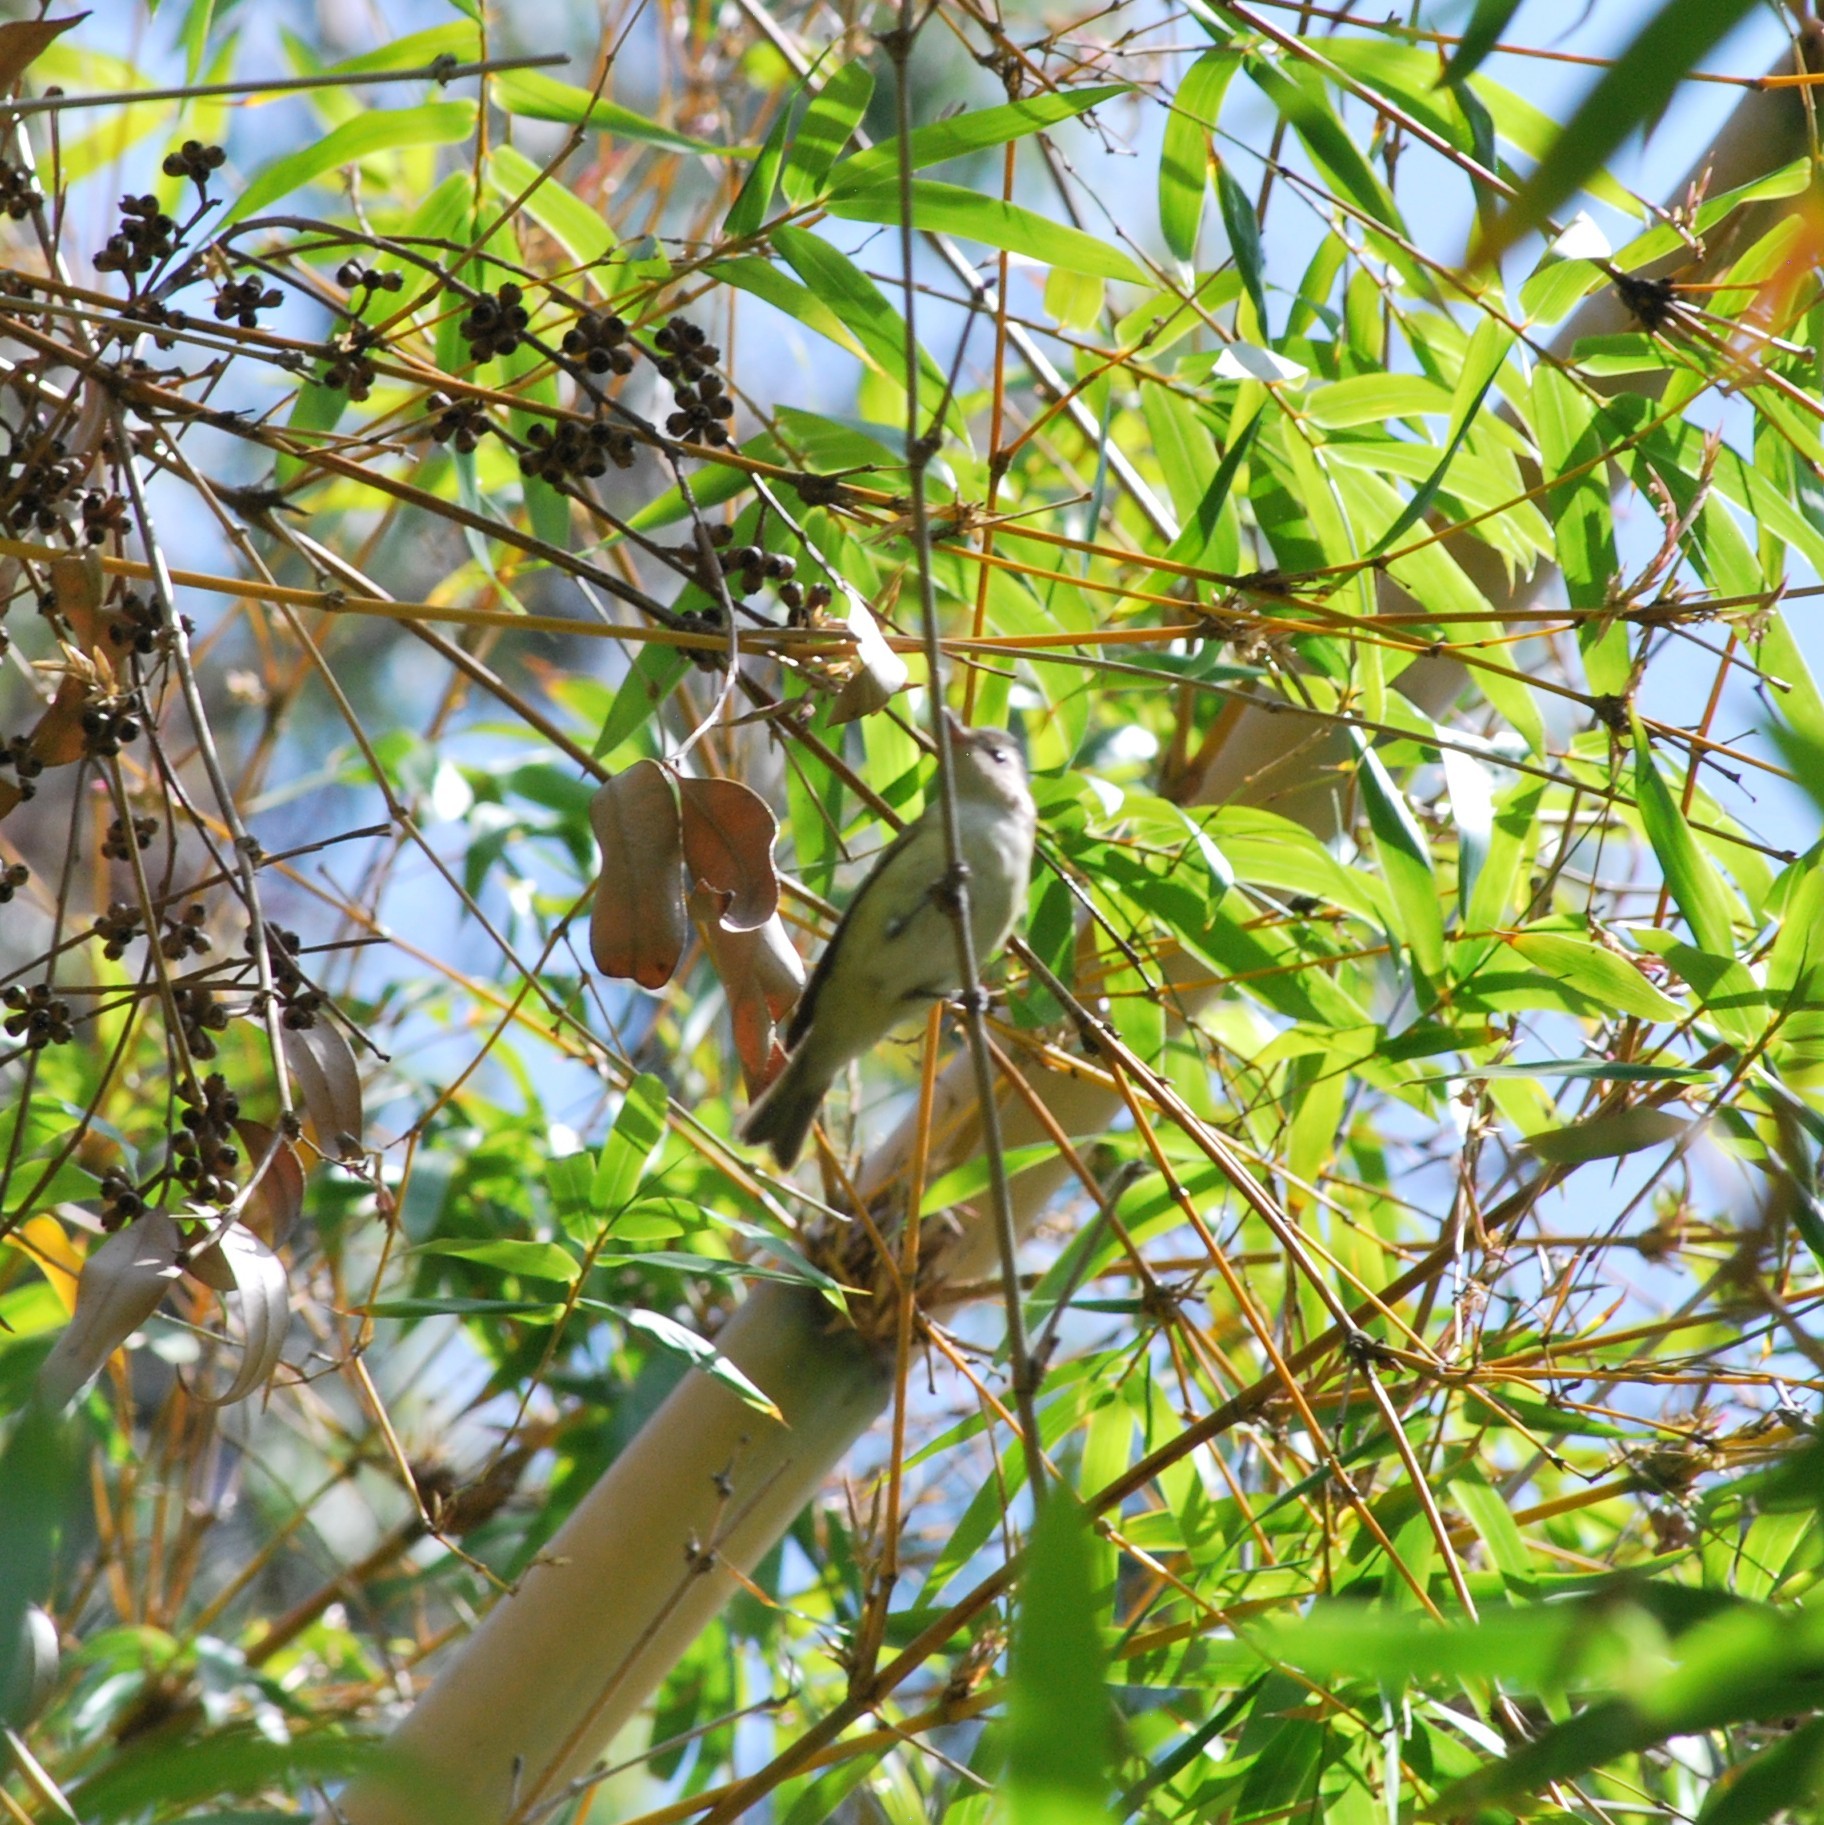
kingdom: Animalia
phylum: Chordata
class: Aves
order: Passeriformes
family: Vireonidae
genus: Vireo
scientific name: Vireo gilvus
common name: Warbling vireo
